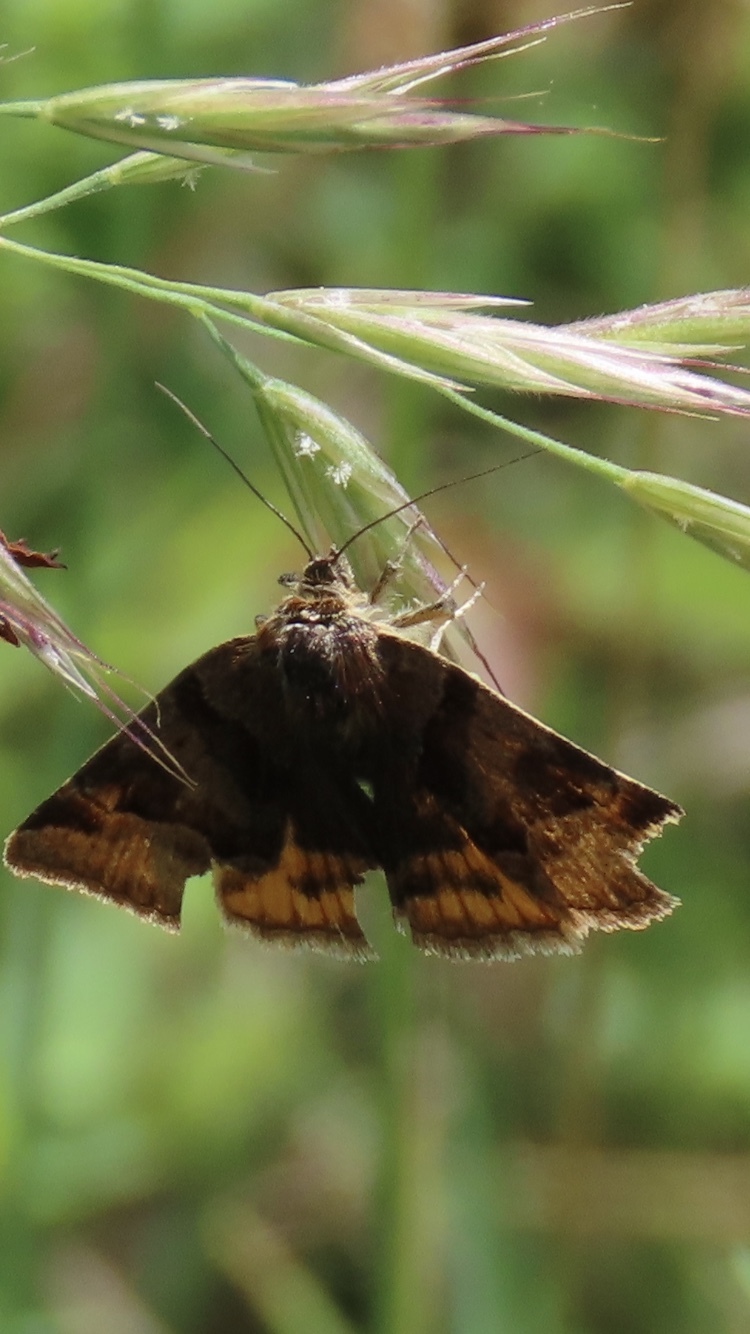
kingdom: Animalia
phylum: Arthropoda
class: Insecta
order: Lepidoptera
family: Erebidae
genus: Euclidia
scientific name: Euclidia glyphica
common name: Burnet companion
